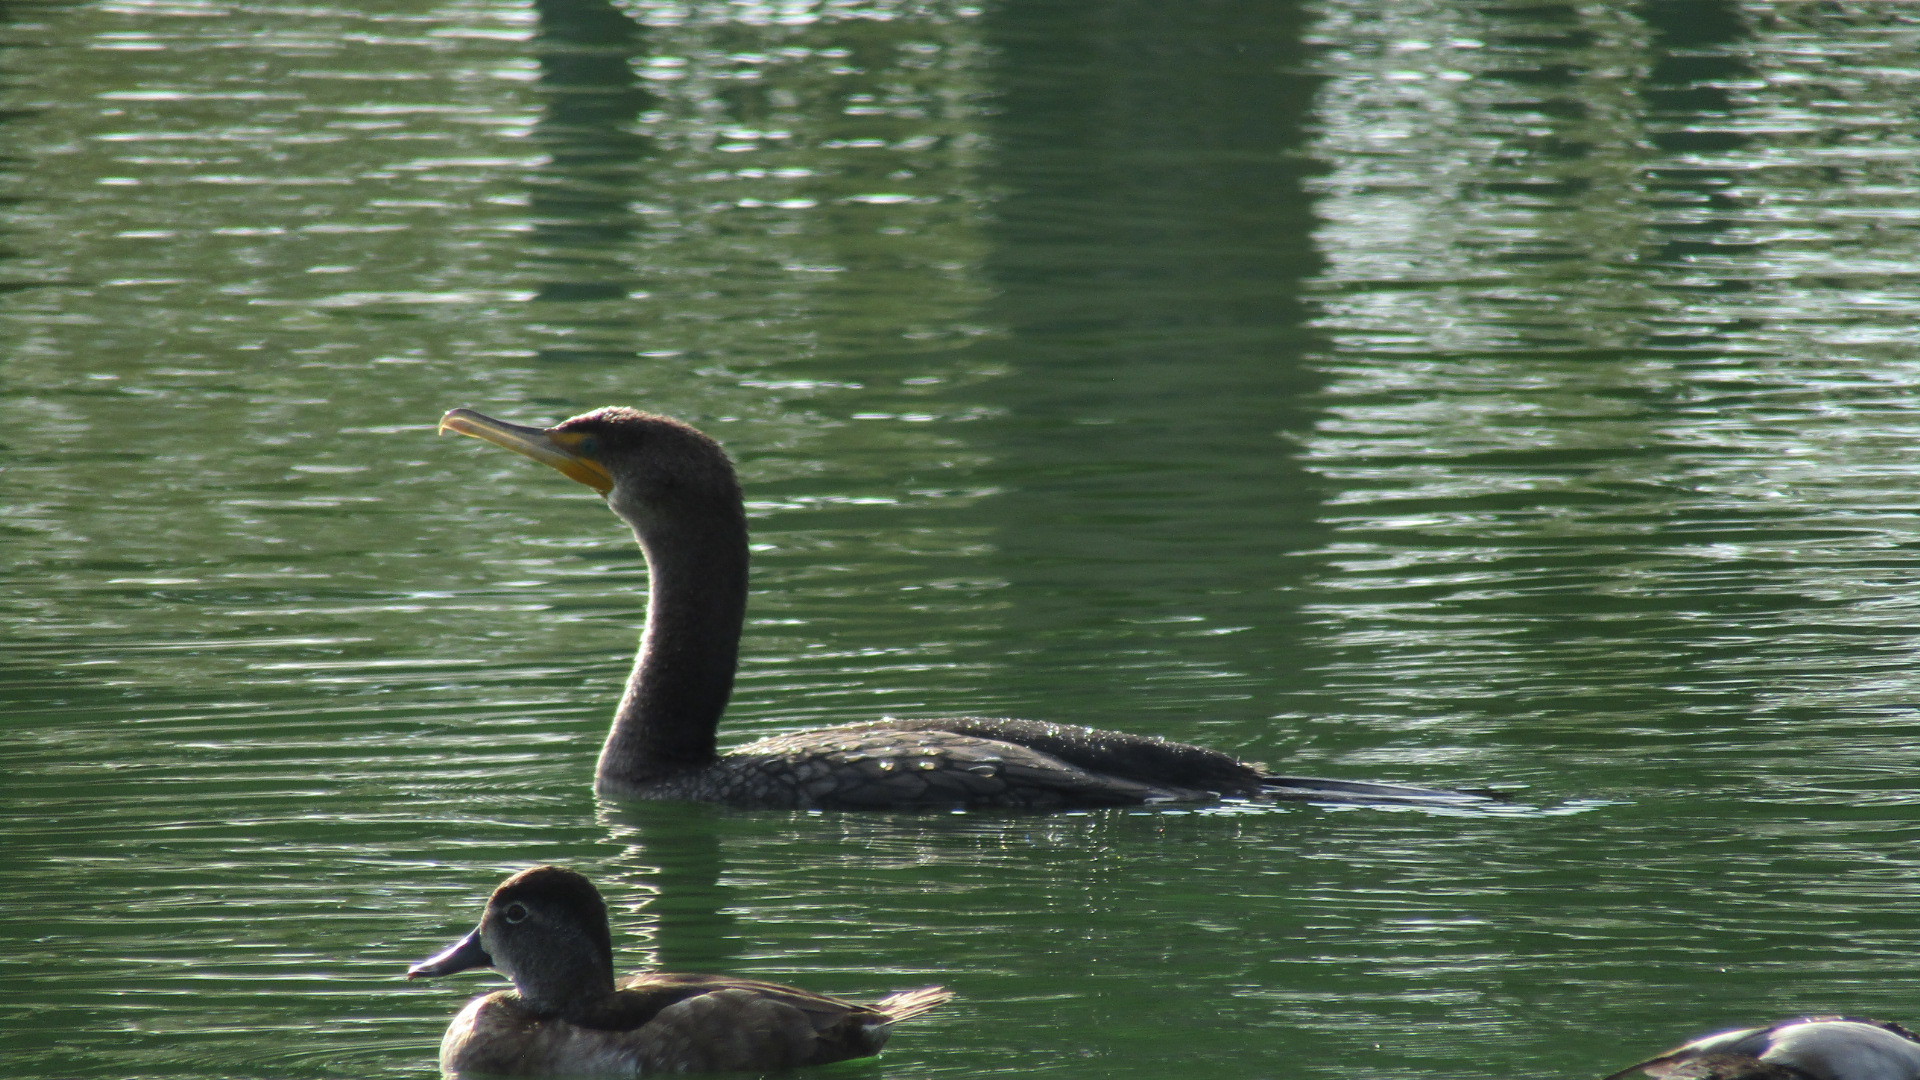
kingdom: Animalia
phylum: Chordata
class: Aves
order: Suliformes
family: Phalacrocoracidae
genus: Phalacrocorax
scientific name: Phalacrocorax auritus
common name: Double-crested cormorant
